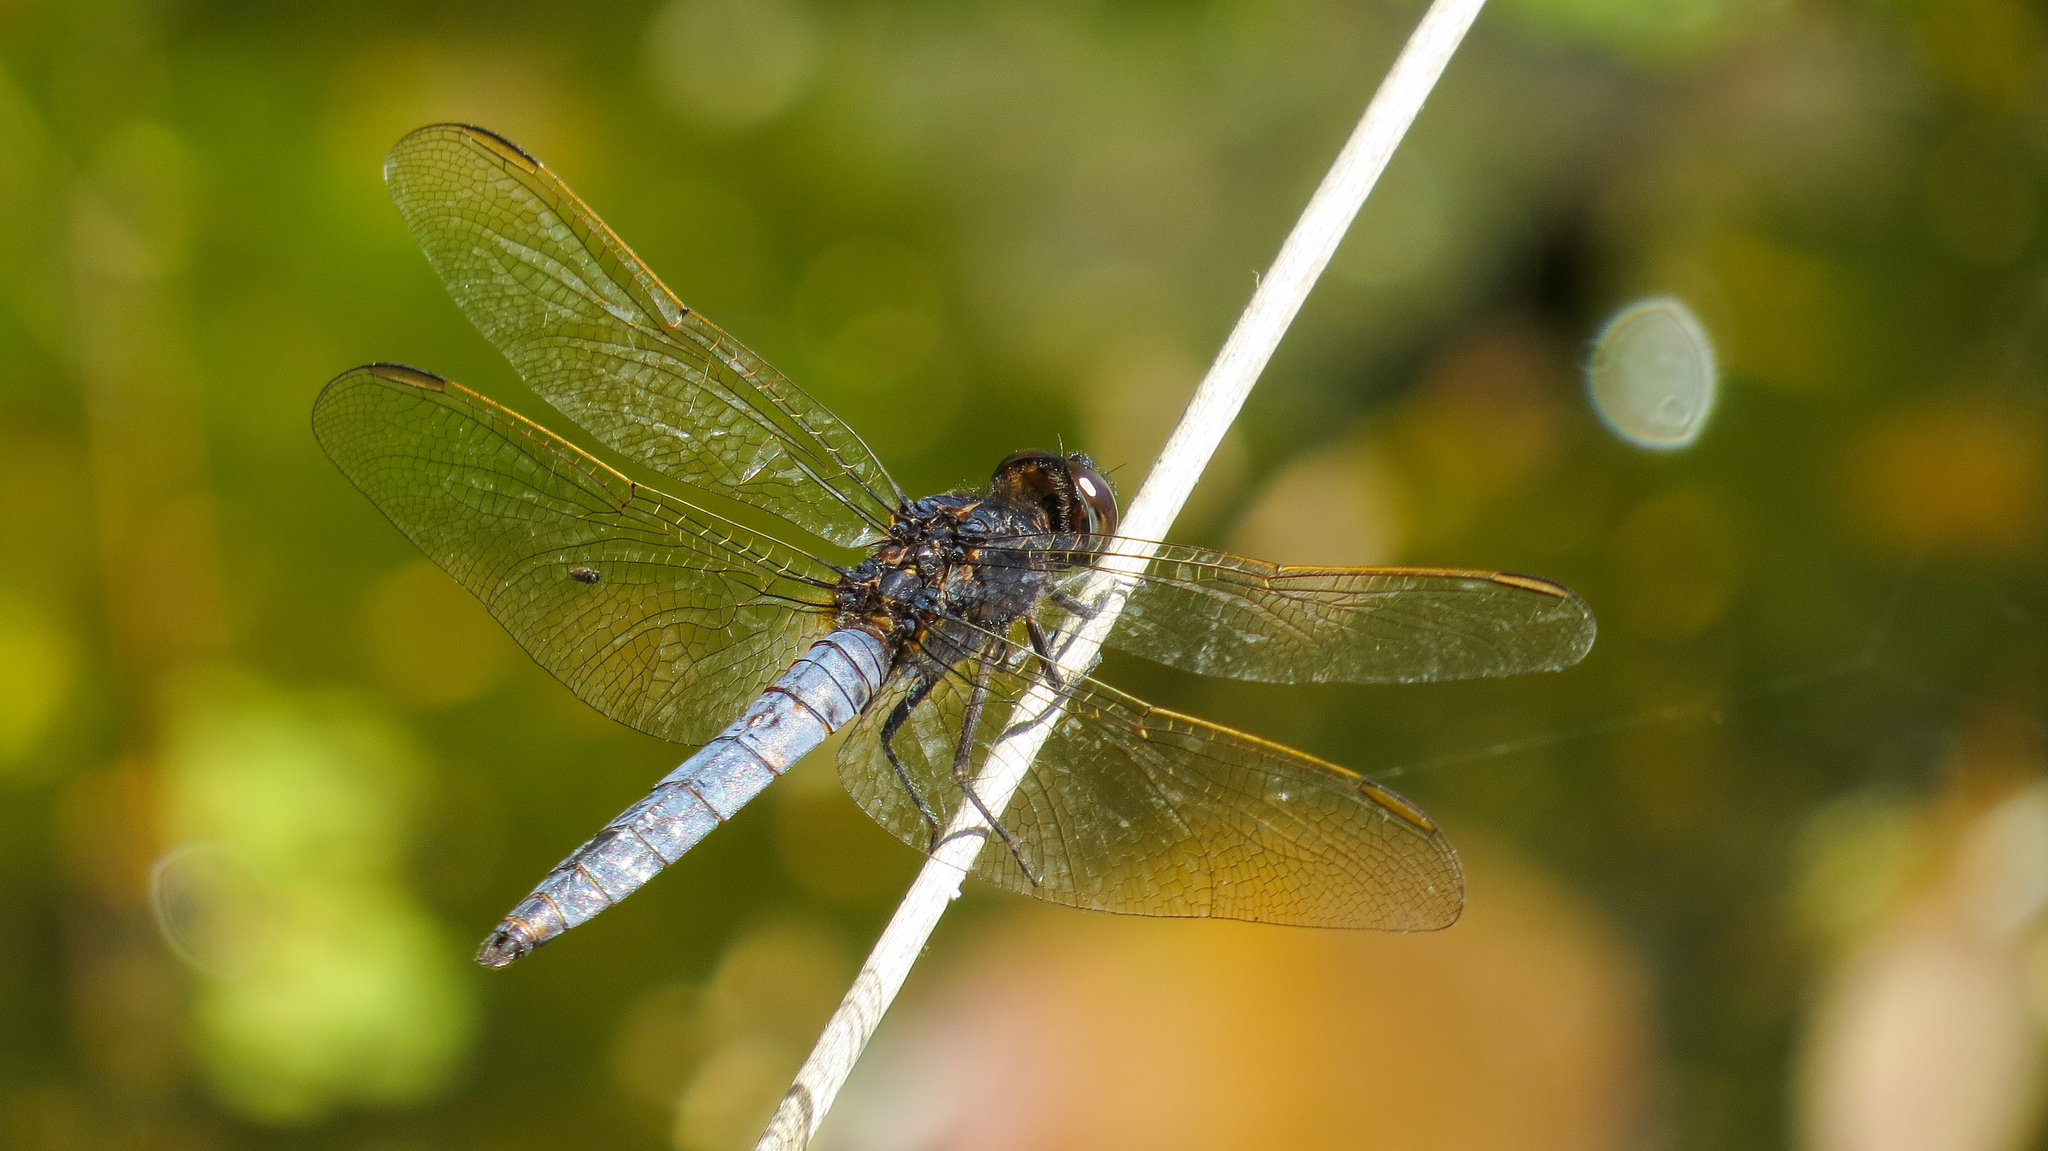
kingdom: Animalia
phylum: Arthropoda
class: Insecta
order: Odonata
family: Libellulidae
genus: Crocothemis
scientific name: Crocothemis nigrifrons
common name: Black-headed skimmer
